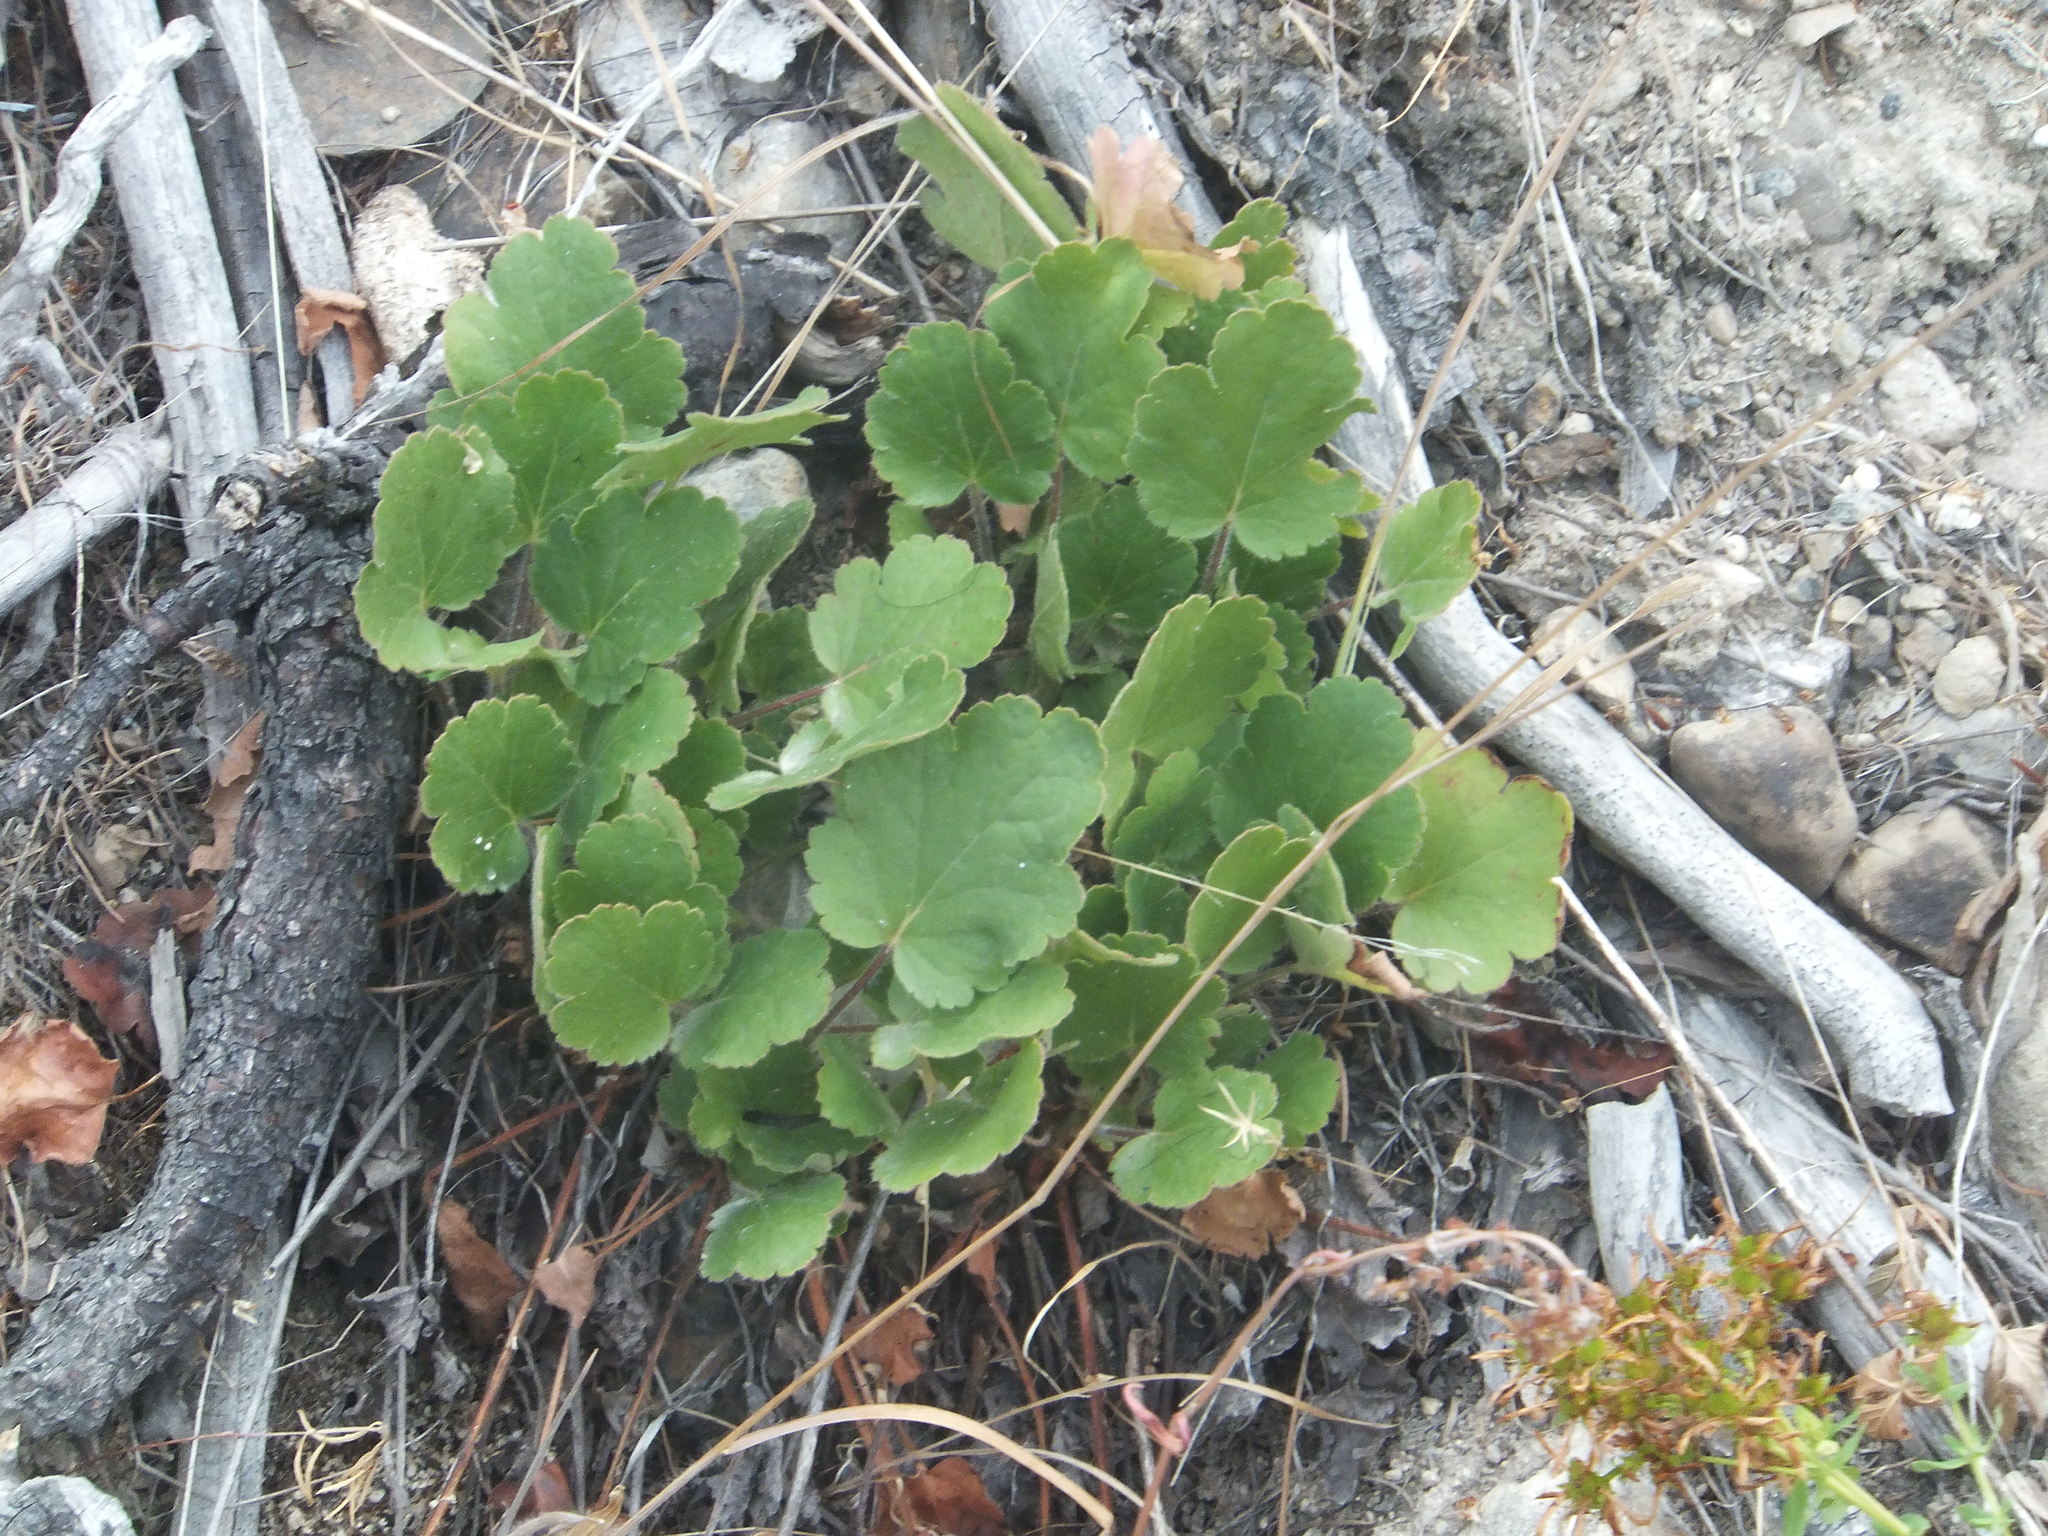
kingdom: Plantae
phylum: Tracheophyta
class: Magnoliopsida
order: Saxifragales
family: Saxifragaceae
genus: Heuchera
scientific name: Heuchera cylindrica
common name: Mat alumroot
